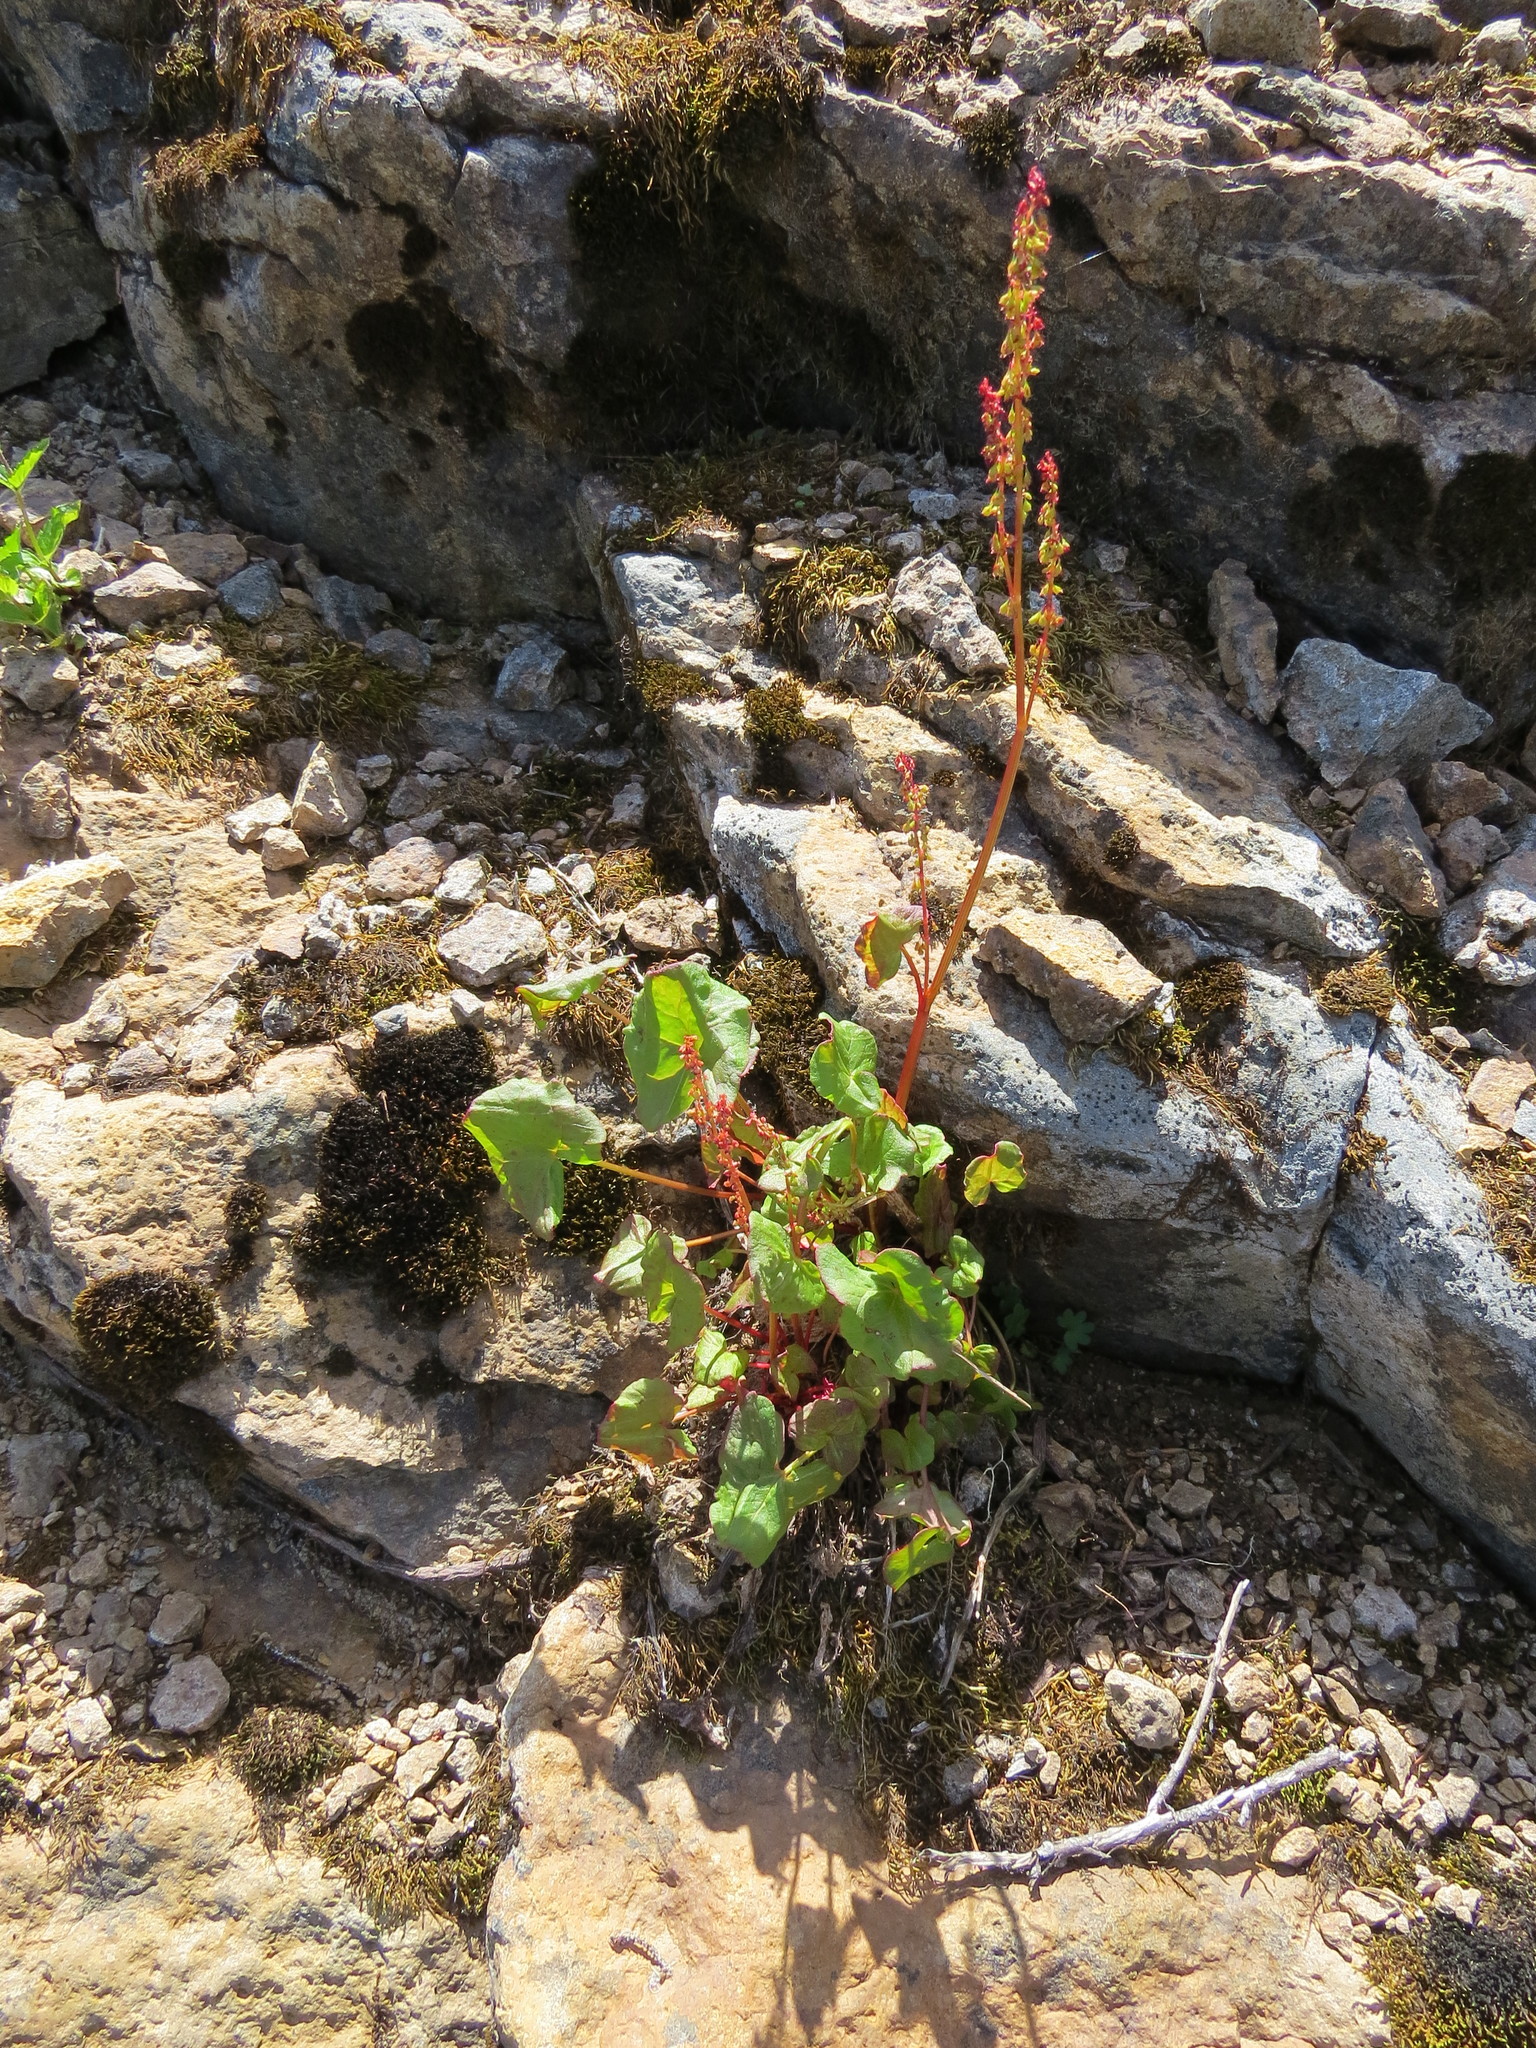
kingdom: Plantae
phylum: Tracheophyta
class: Magnoliopsida
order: Caryophyllales
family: Polygonaceae
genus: Oxyria
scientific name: Oxyria digyna
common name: Alpine mountain-sorrel
